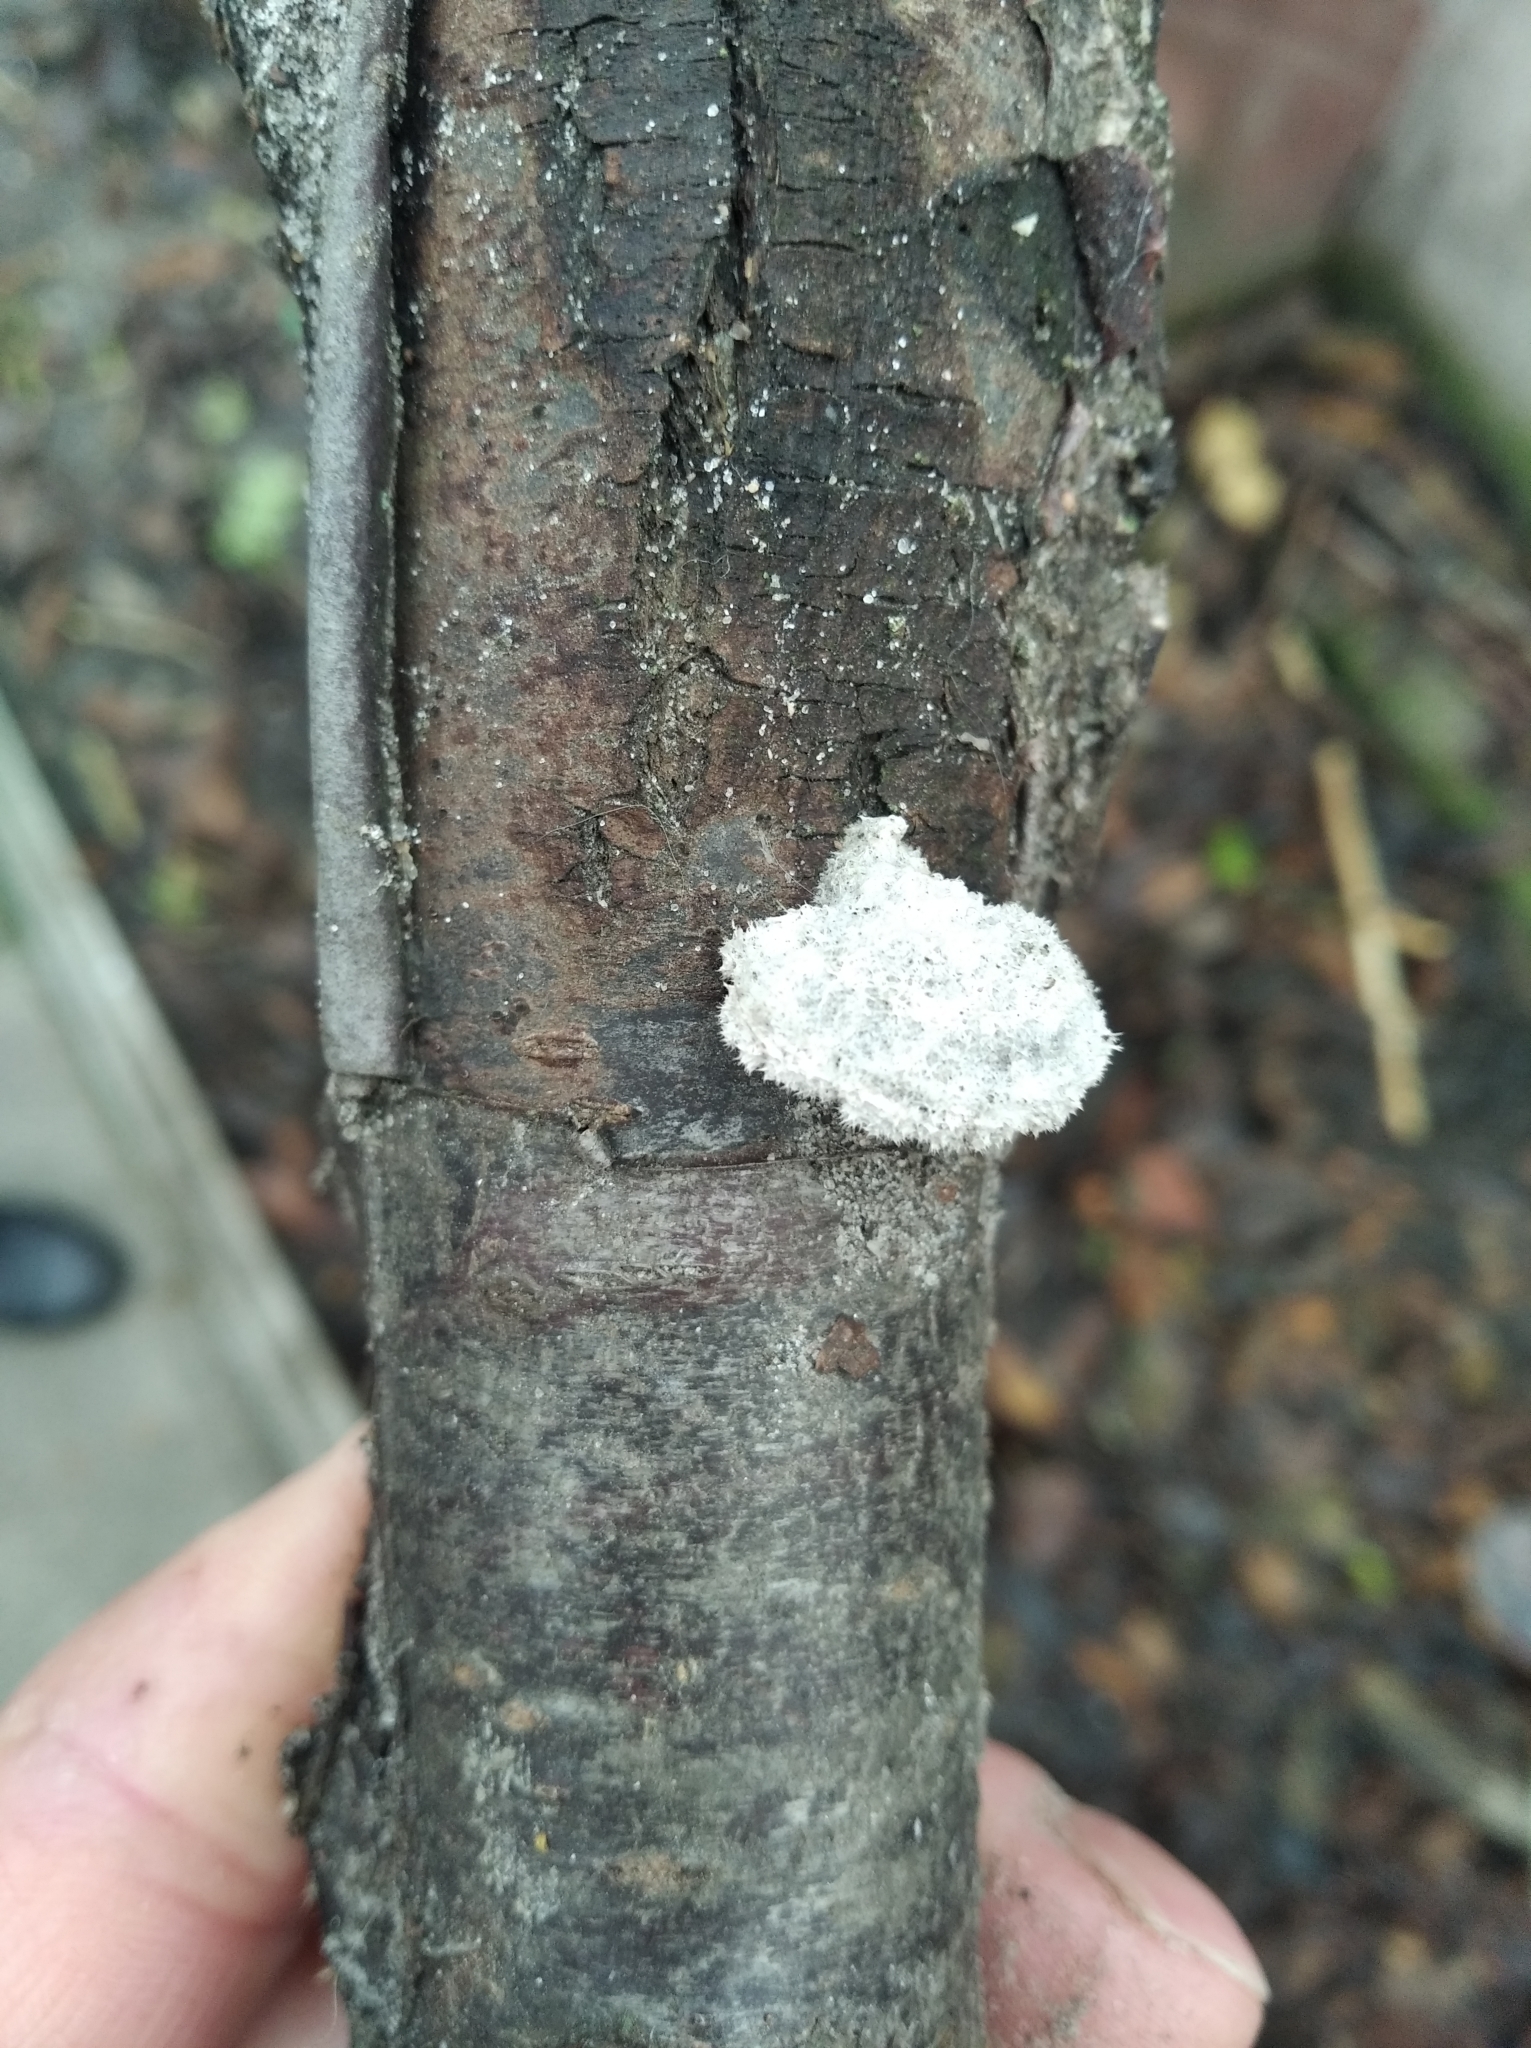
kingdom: Fungi
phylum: Basidiomycota
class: Agaricomycetes
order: Agaricales
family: Schizophyllaceae
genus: Schizophyllum
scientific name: Schizophyllum commune
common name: Common porecrust
